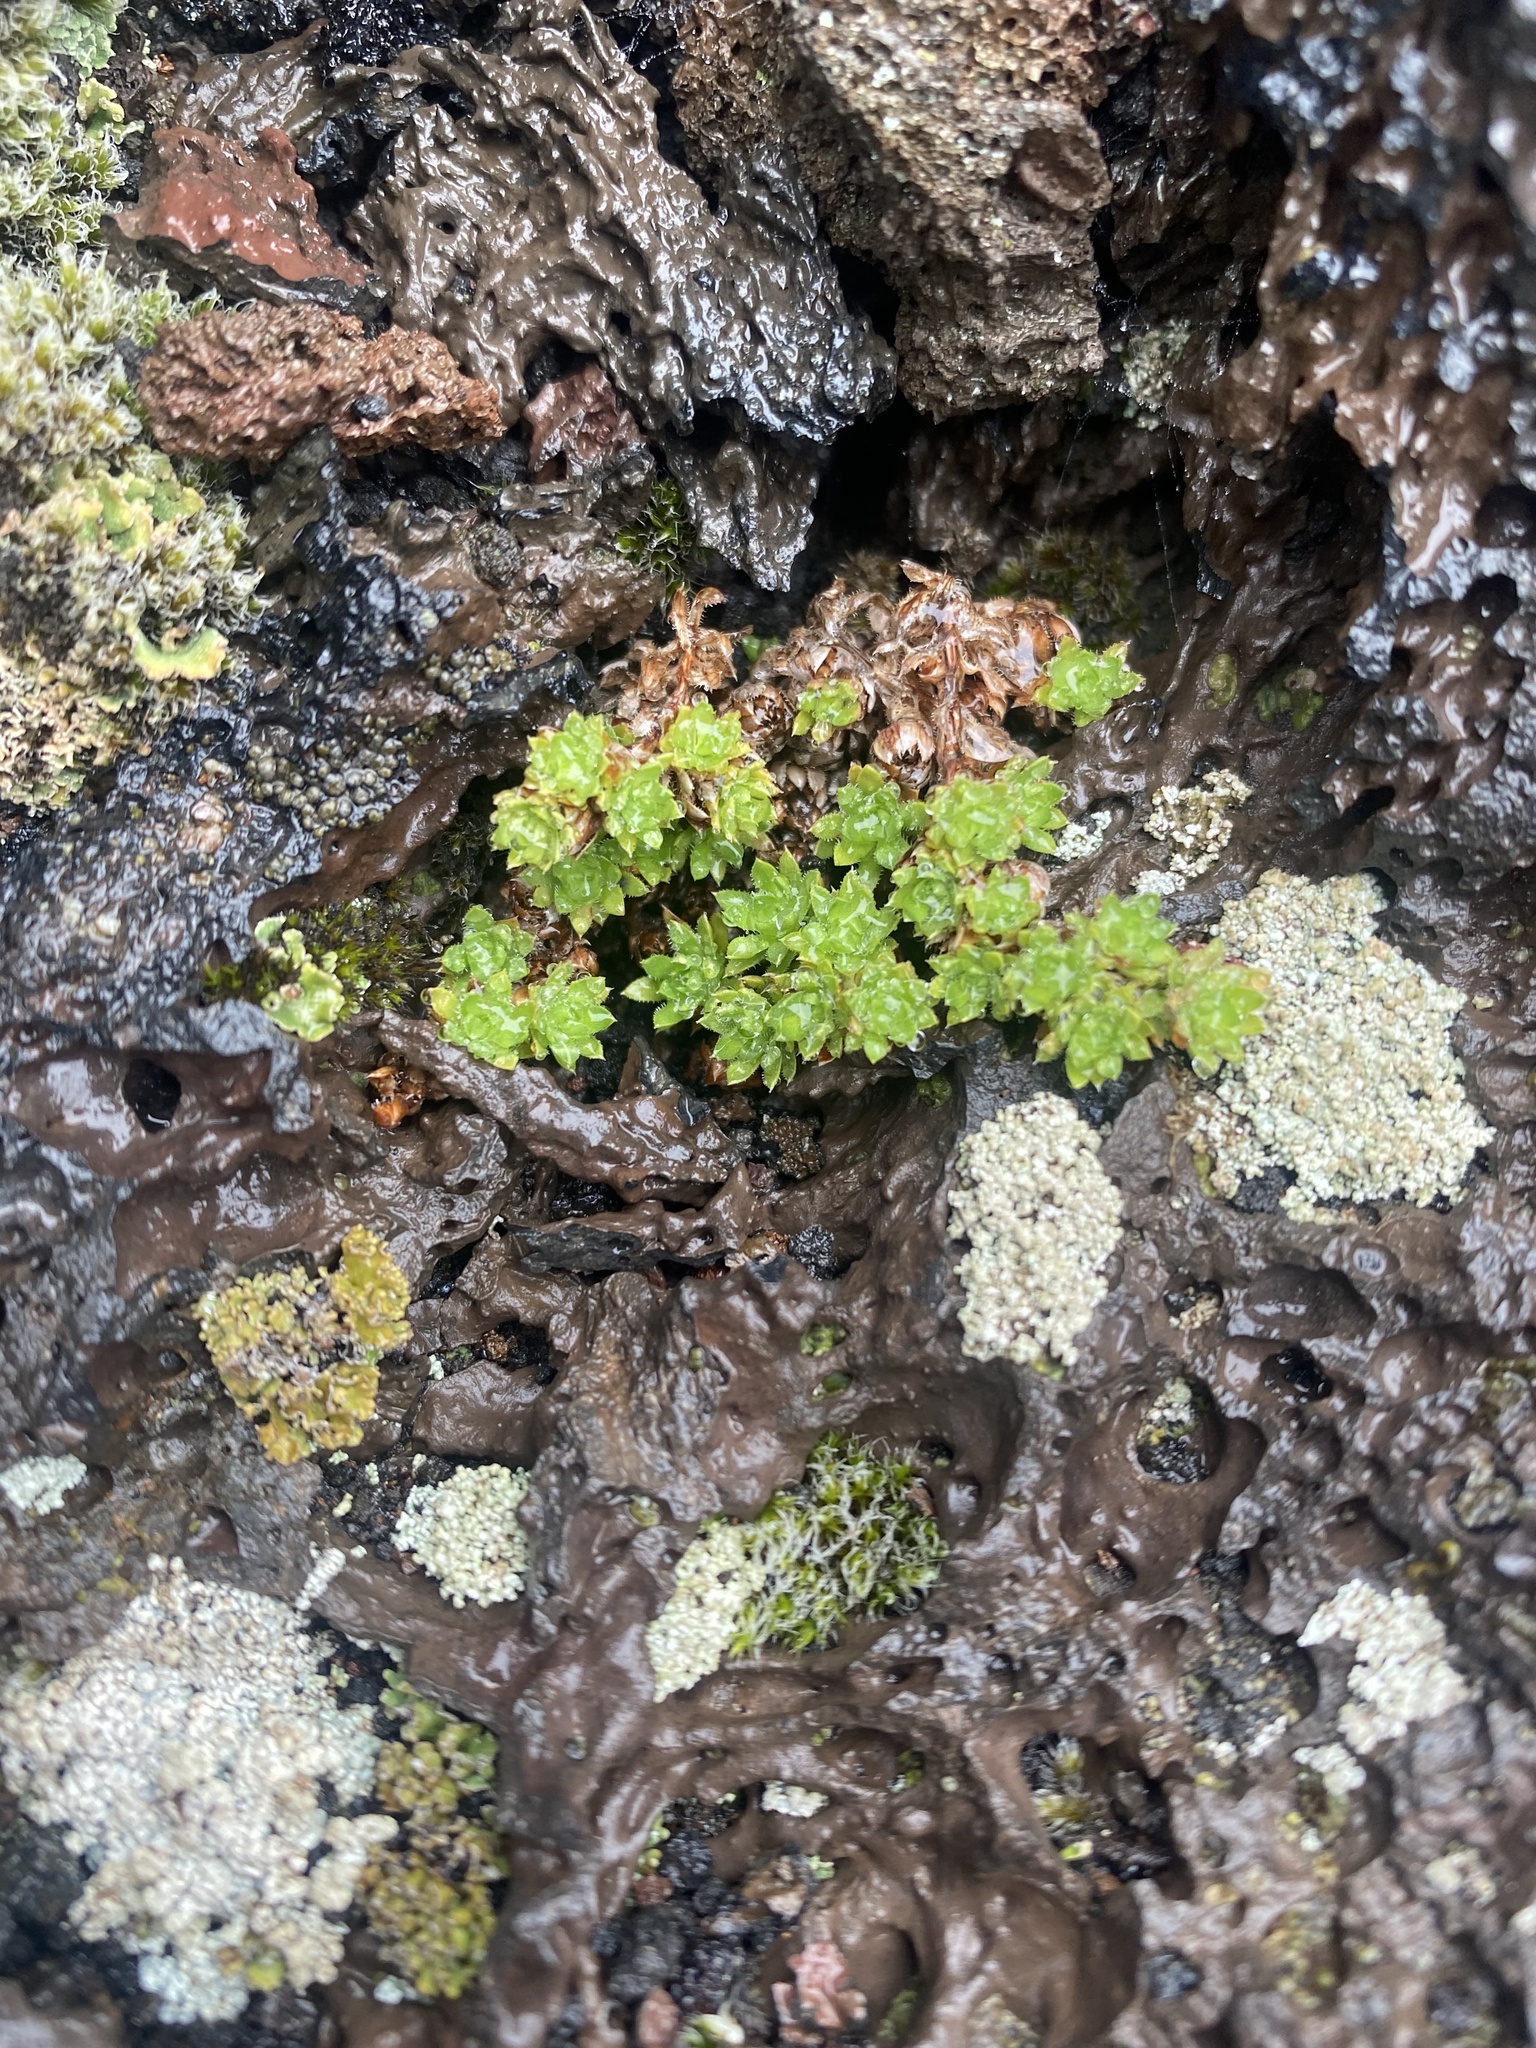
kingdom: Plantae
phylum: Tracheophyta
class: Magnoliopsida
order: Saxifragales
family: Saxifragaceae
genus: Saxifraga
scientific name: Saxifraga bronchialis
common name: Matted saxifrage
